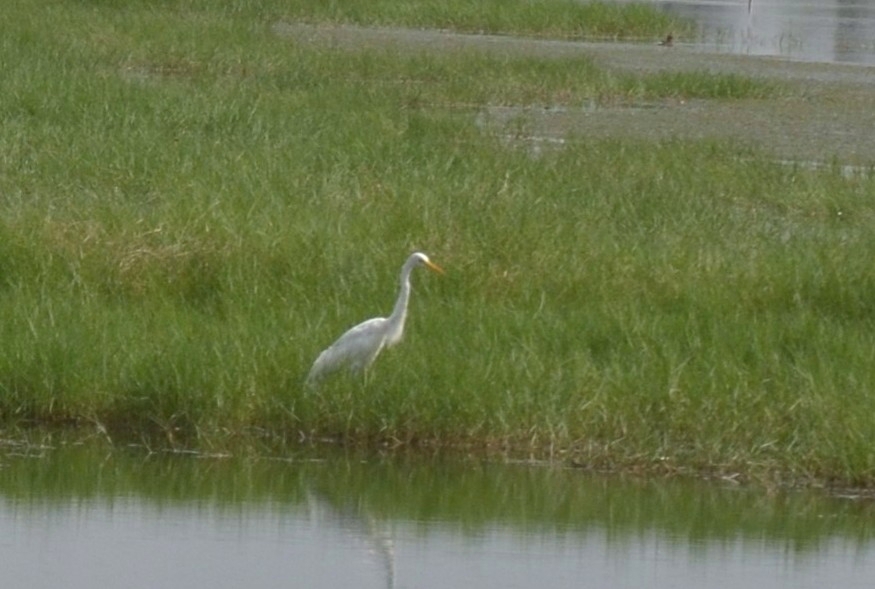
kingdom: Animalia
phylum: Chordata
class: Aves
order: Pelecaniformes
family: Ardeidae
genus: Egretta
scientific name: Egretta intermedia
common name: Intermediate egret
